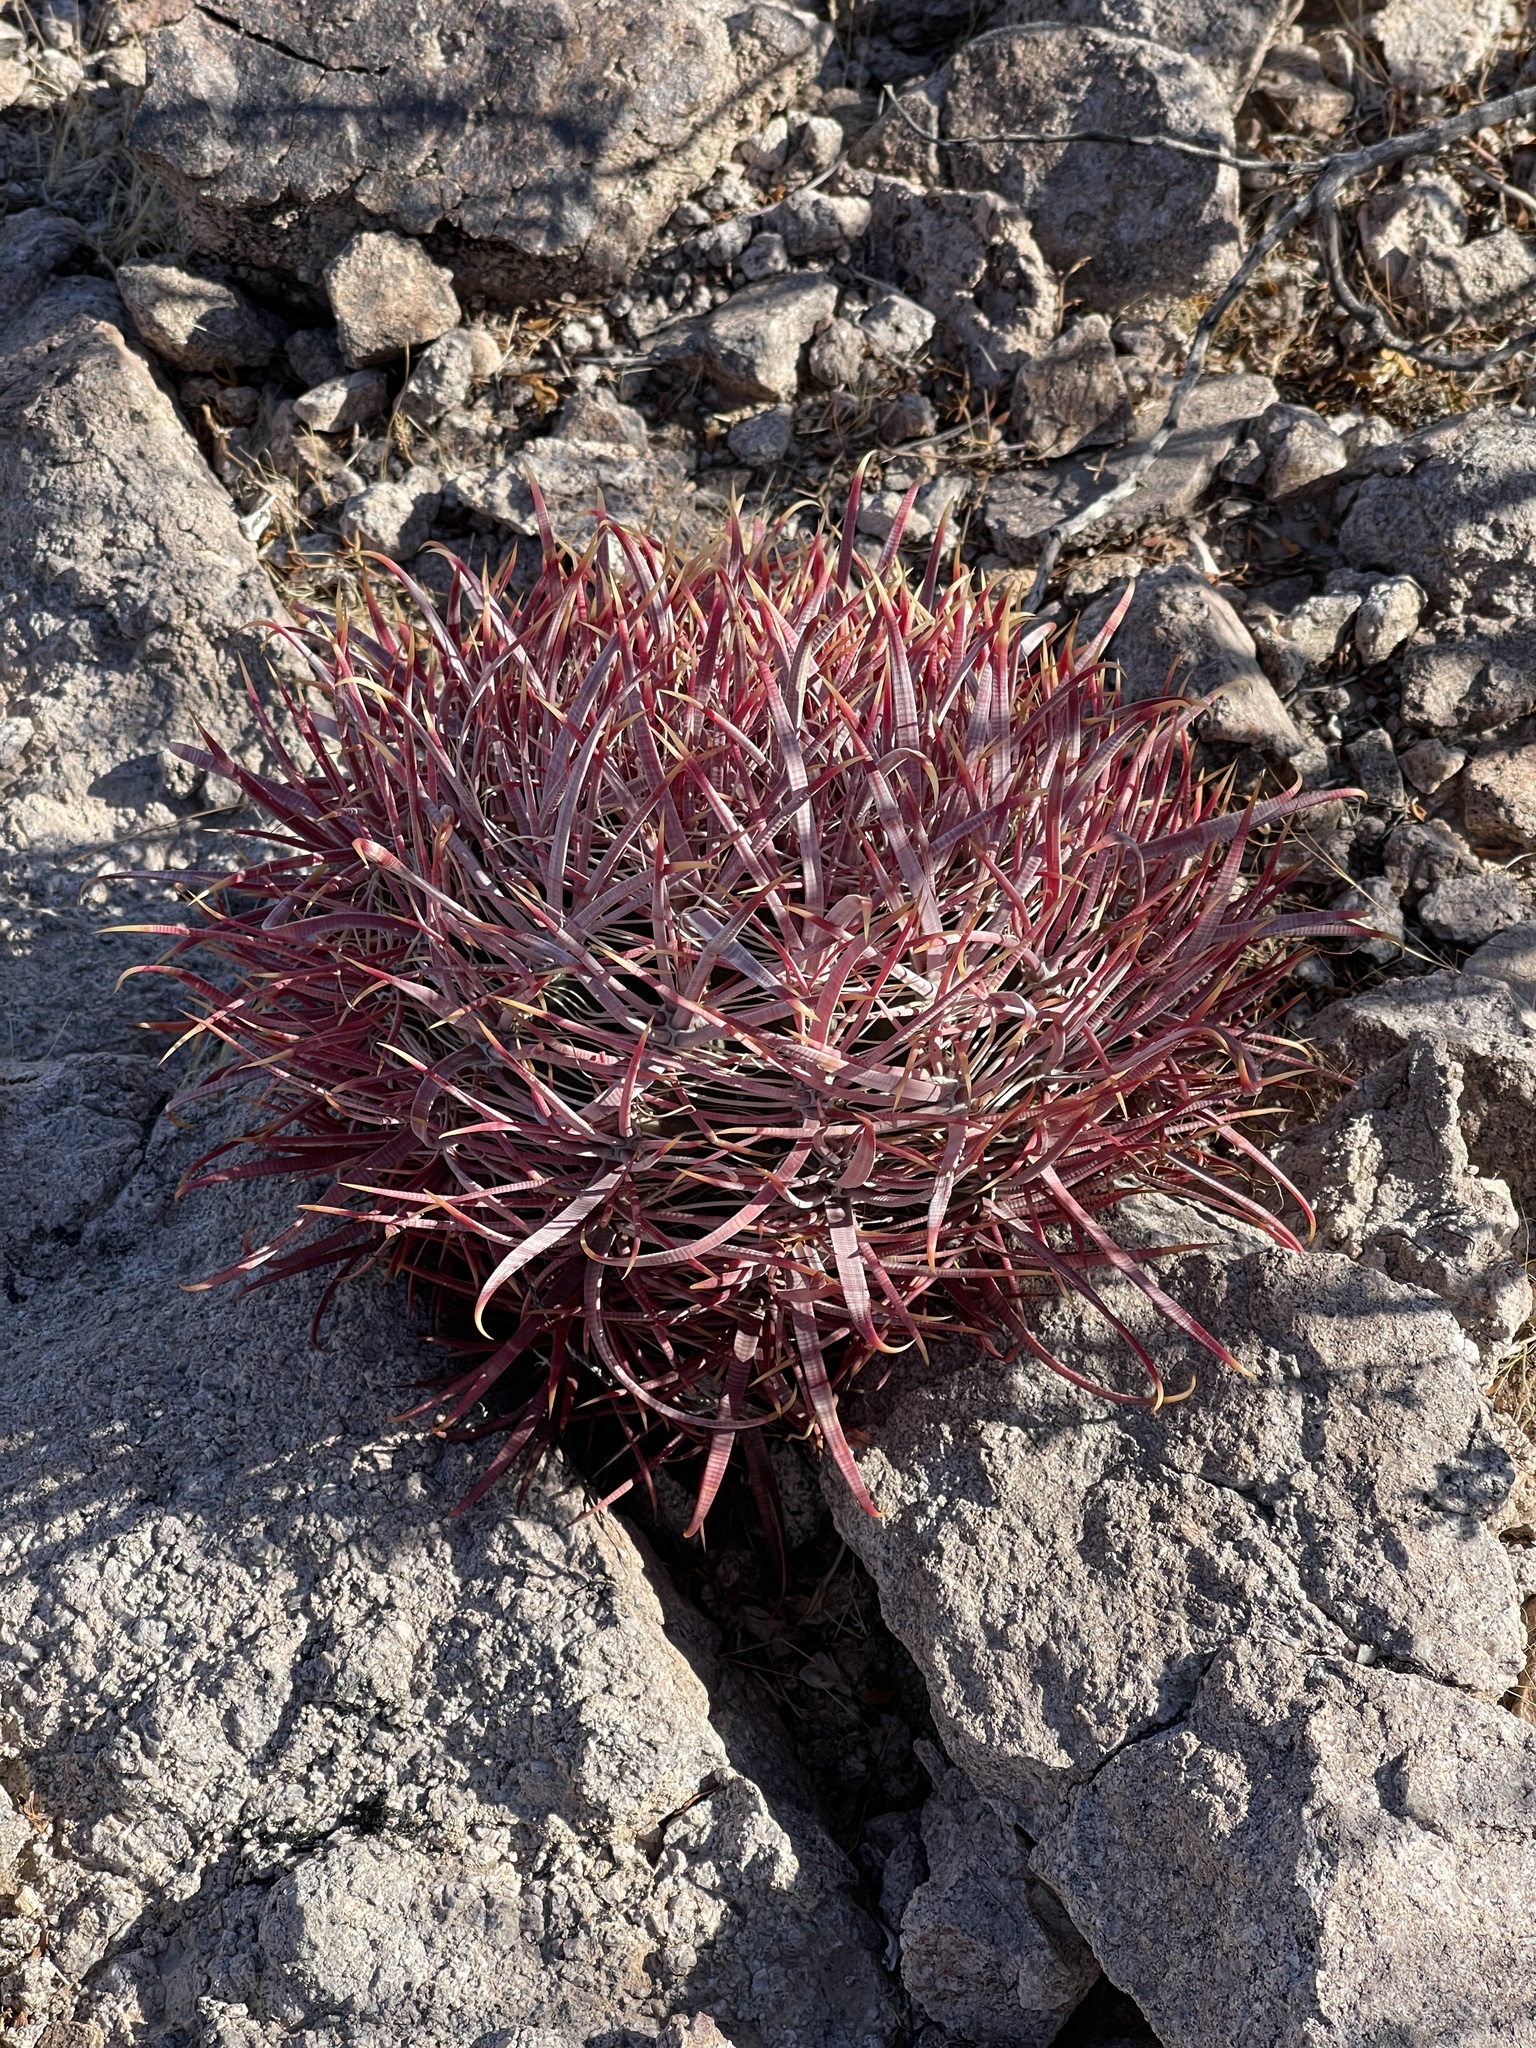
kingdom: Plantae
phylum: Tracheophyta
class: Magnoliopsida
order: Caryophyllales
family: Cactaceae
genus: Ferocactus
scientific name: Ferocactus cylindraceus
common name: California barrel cactus
